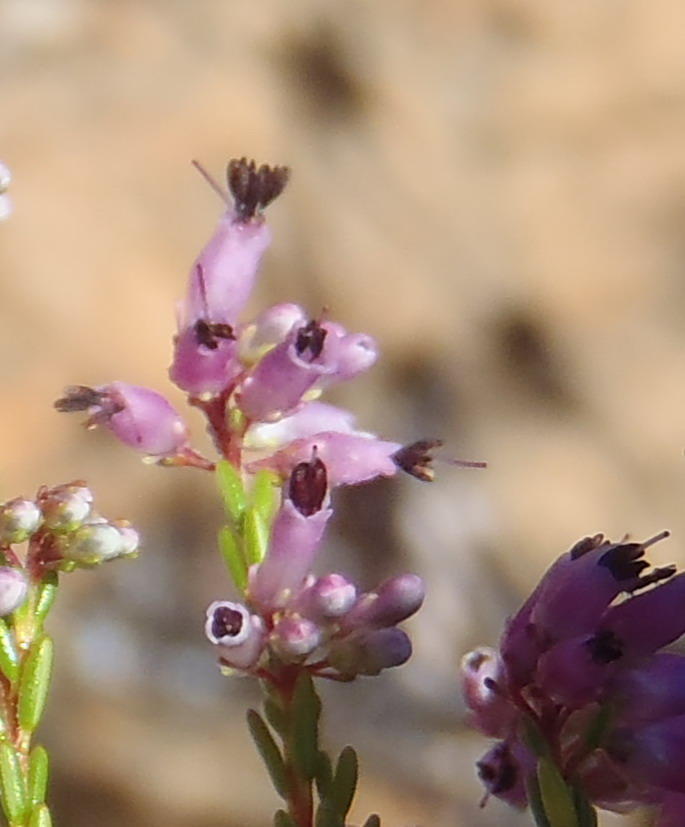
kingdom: Plantae
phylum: Tracheophyta
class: Magnoliopsida
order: Ericales
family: Ericaceae
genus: Erica
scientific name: Erica rosacea
